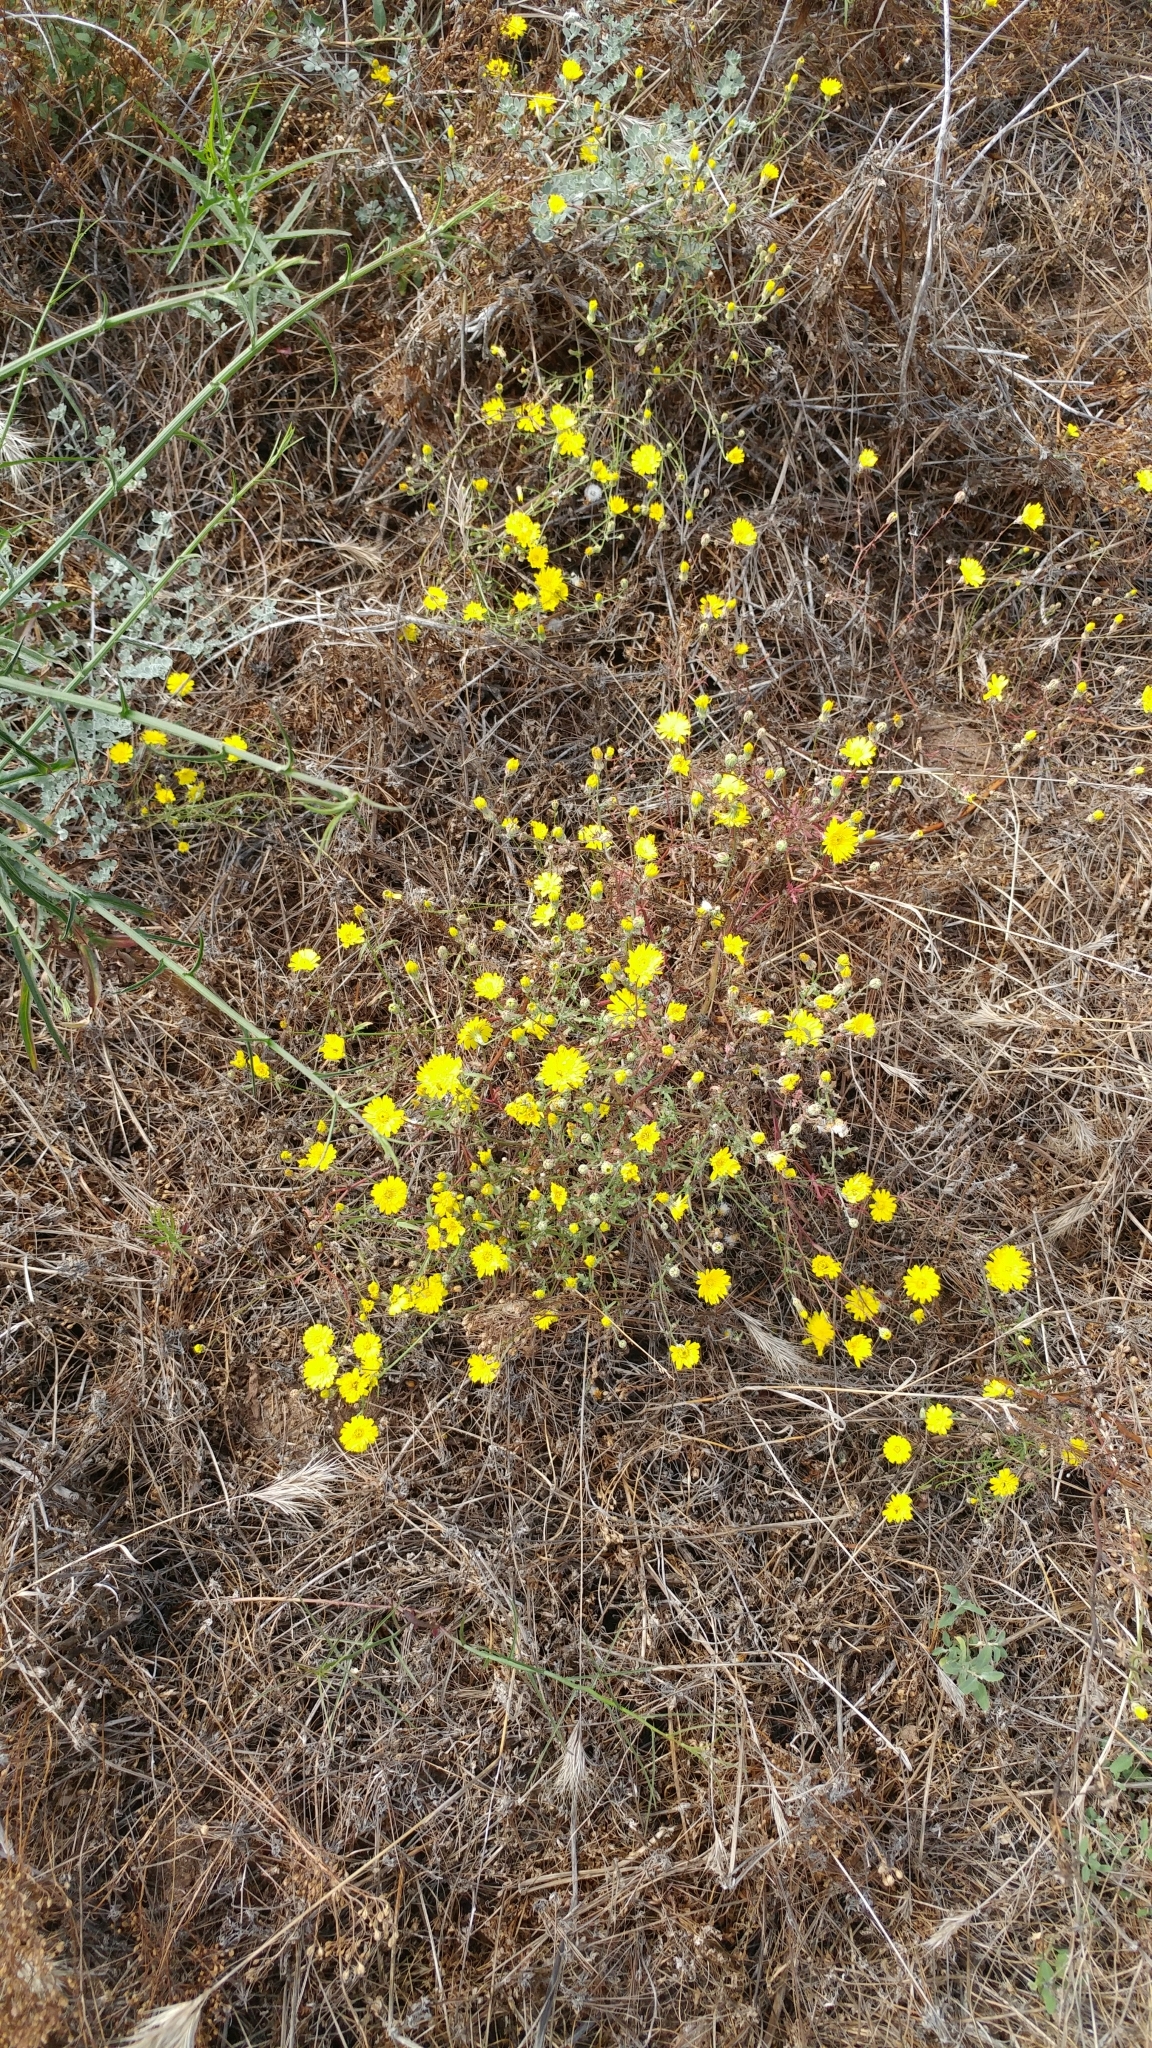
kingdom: Plantae
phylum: Tracheophyta
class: Magnoliopsida
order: Asterales
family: Asteraceae
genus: Malacothrix
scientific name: Malacothrix foliosa
